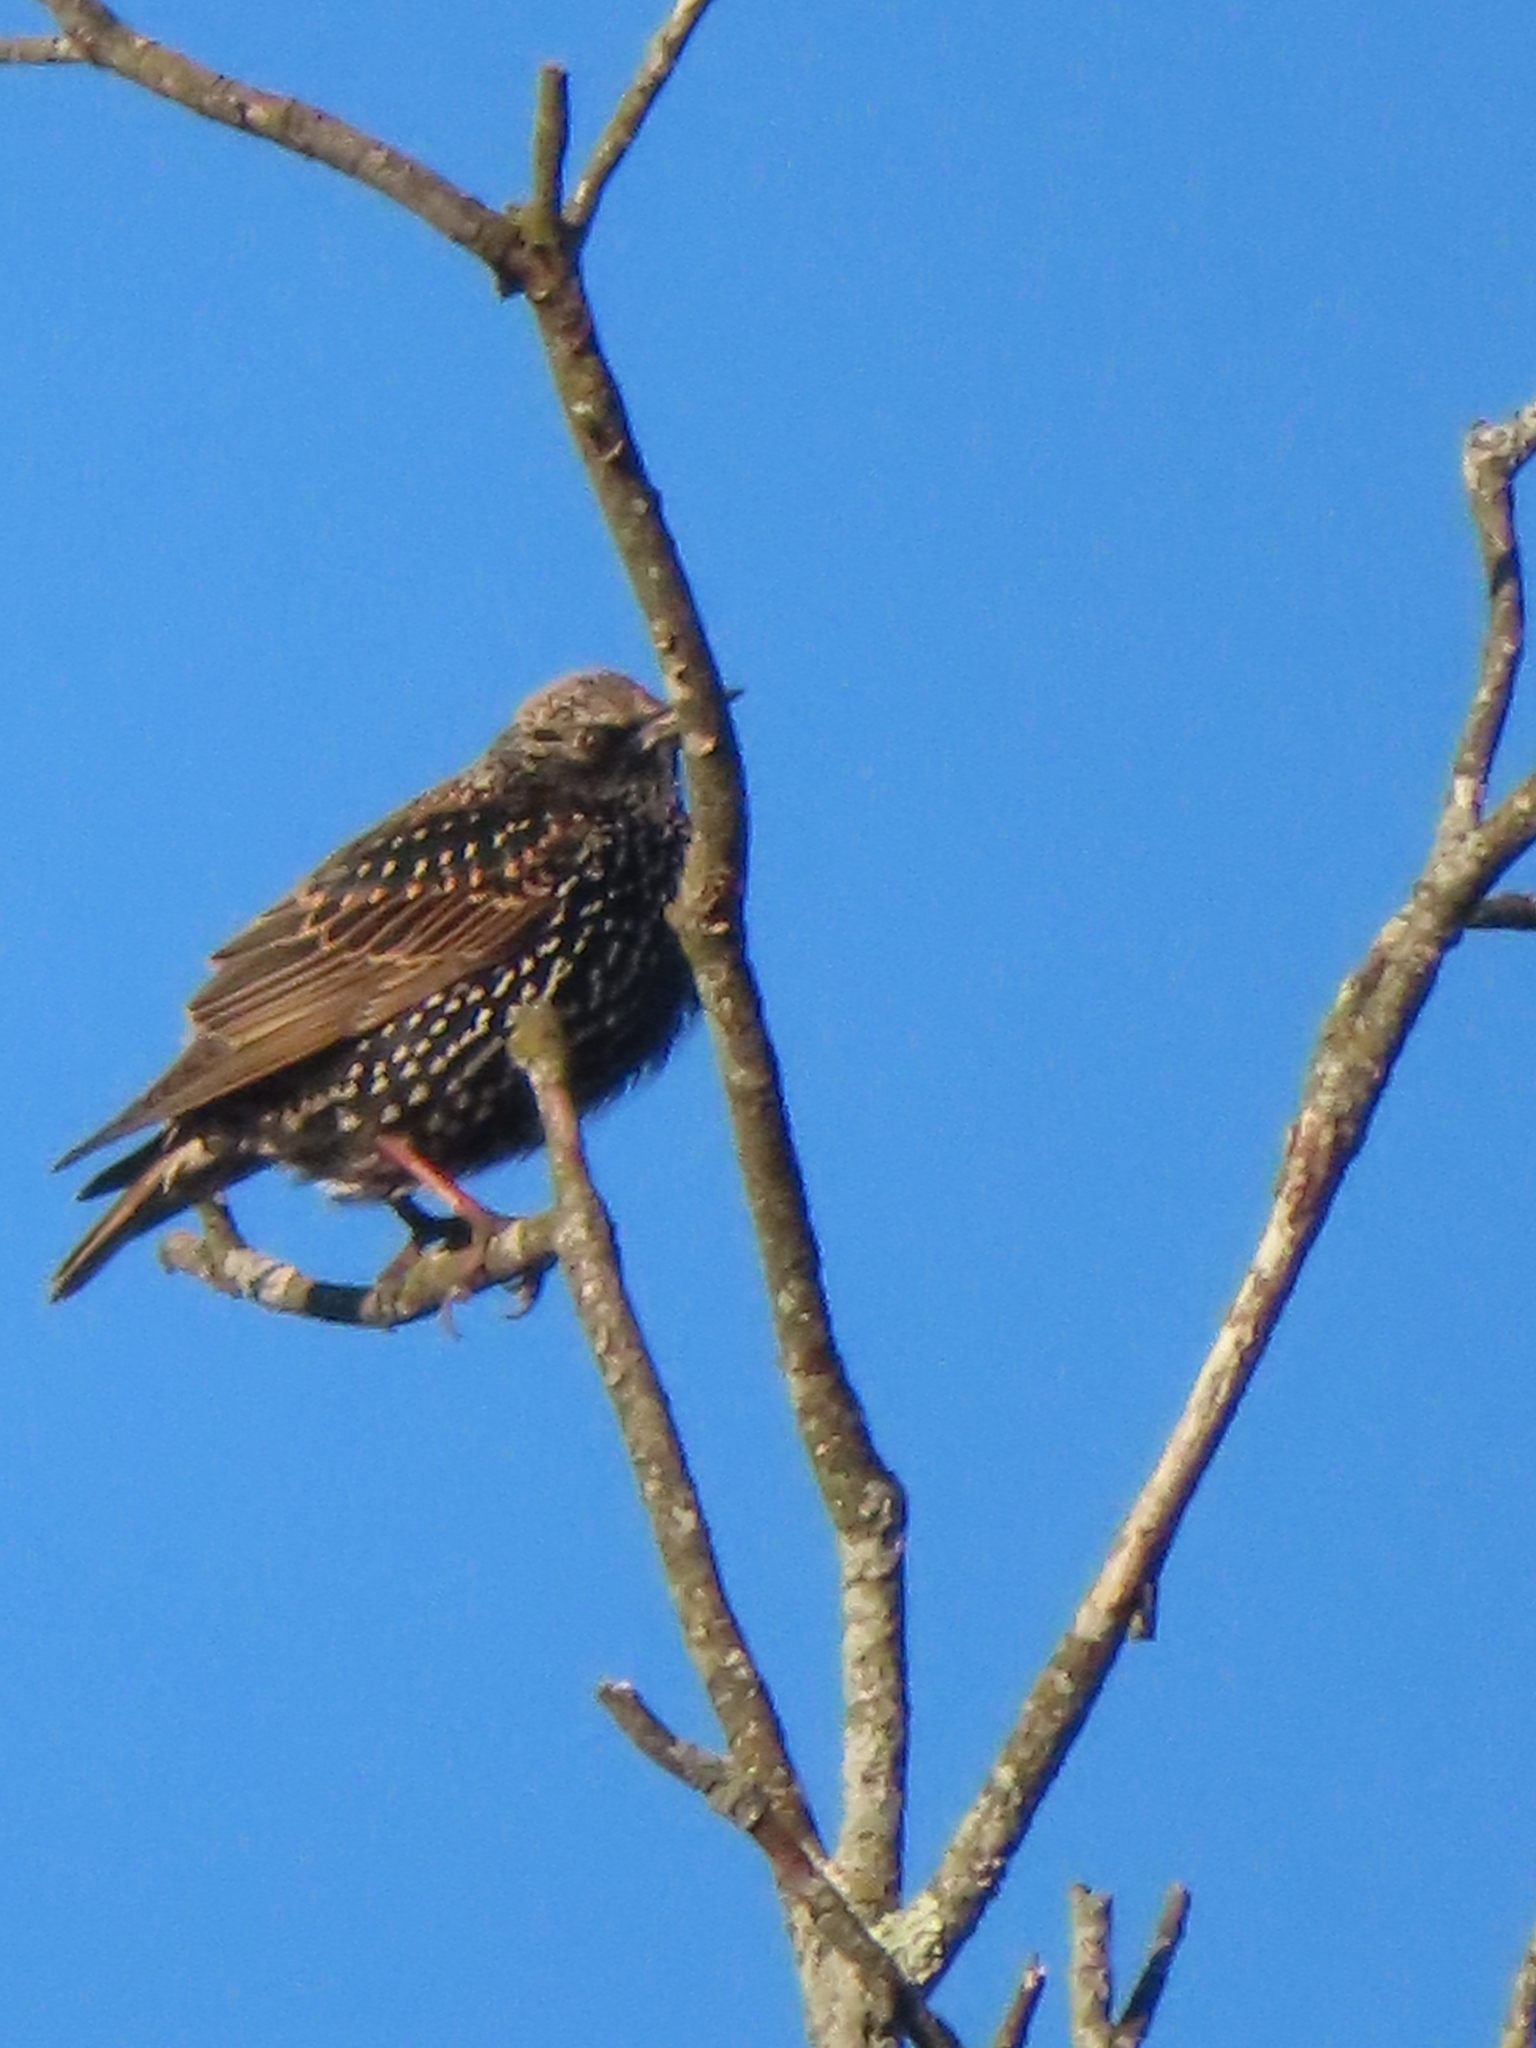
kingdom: Animalia
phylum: Chordata
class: Aves
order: Passeriformes
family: Sturnidae
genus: Sturnus
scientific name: Sturnus vulgaris
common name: Common starling
